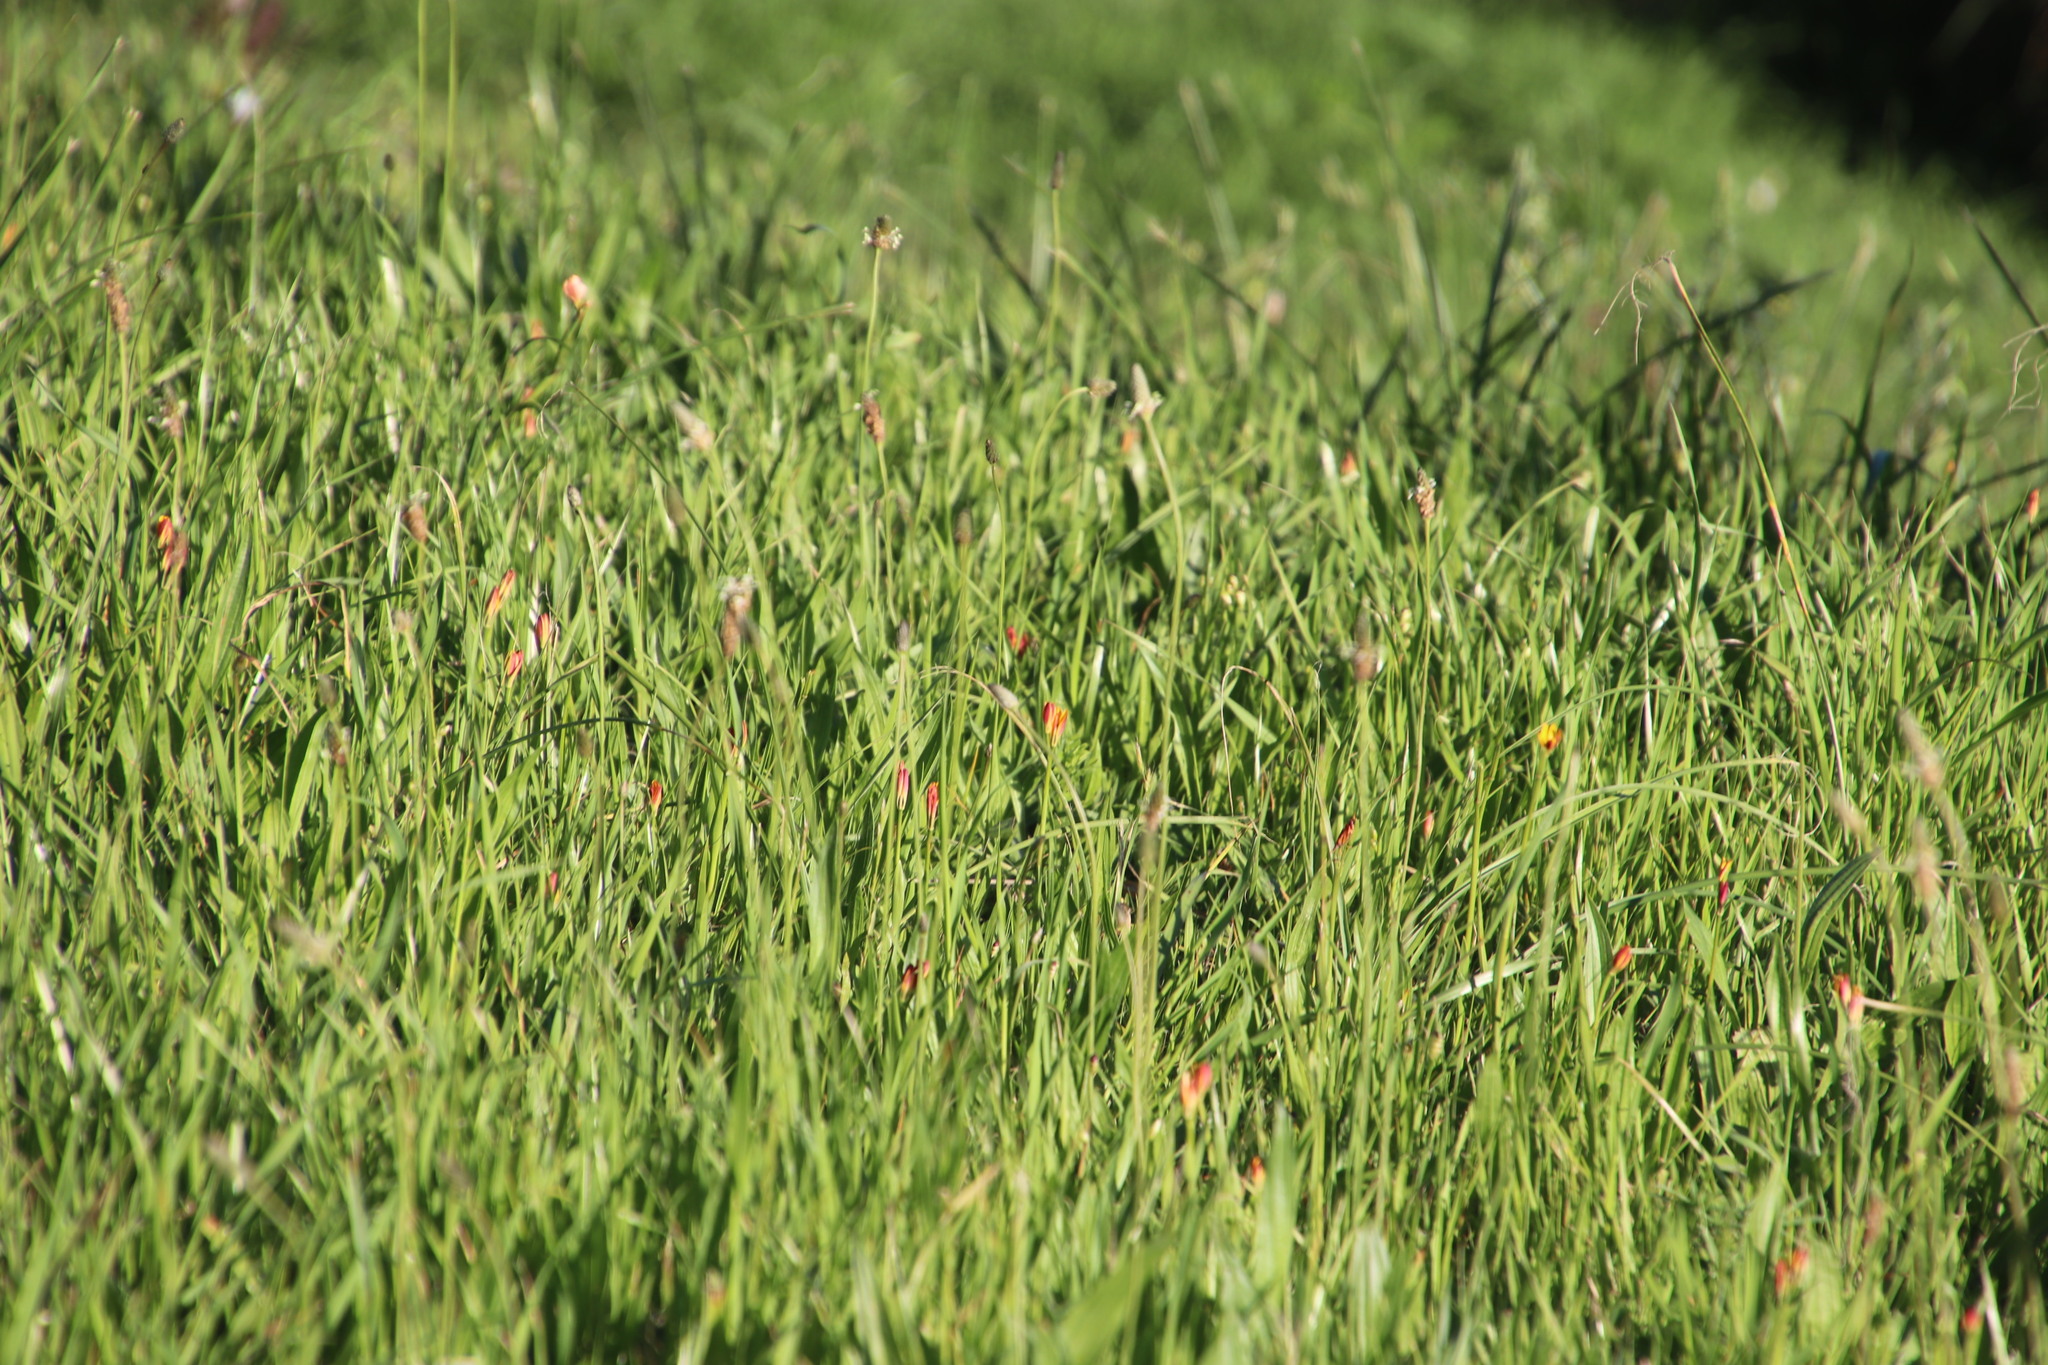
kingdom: Plantae
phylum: Tracheophyta
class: Liliopsida
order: Liliales
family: Colchicaceae
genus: Baeometra
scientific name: Baeometra uniflora
